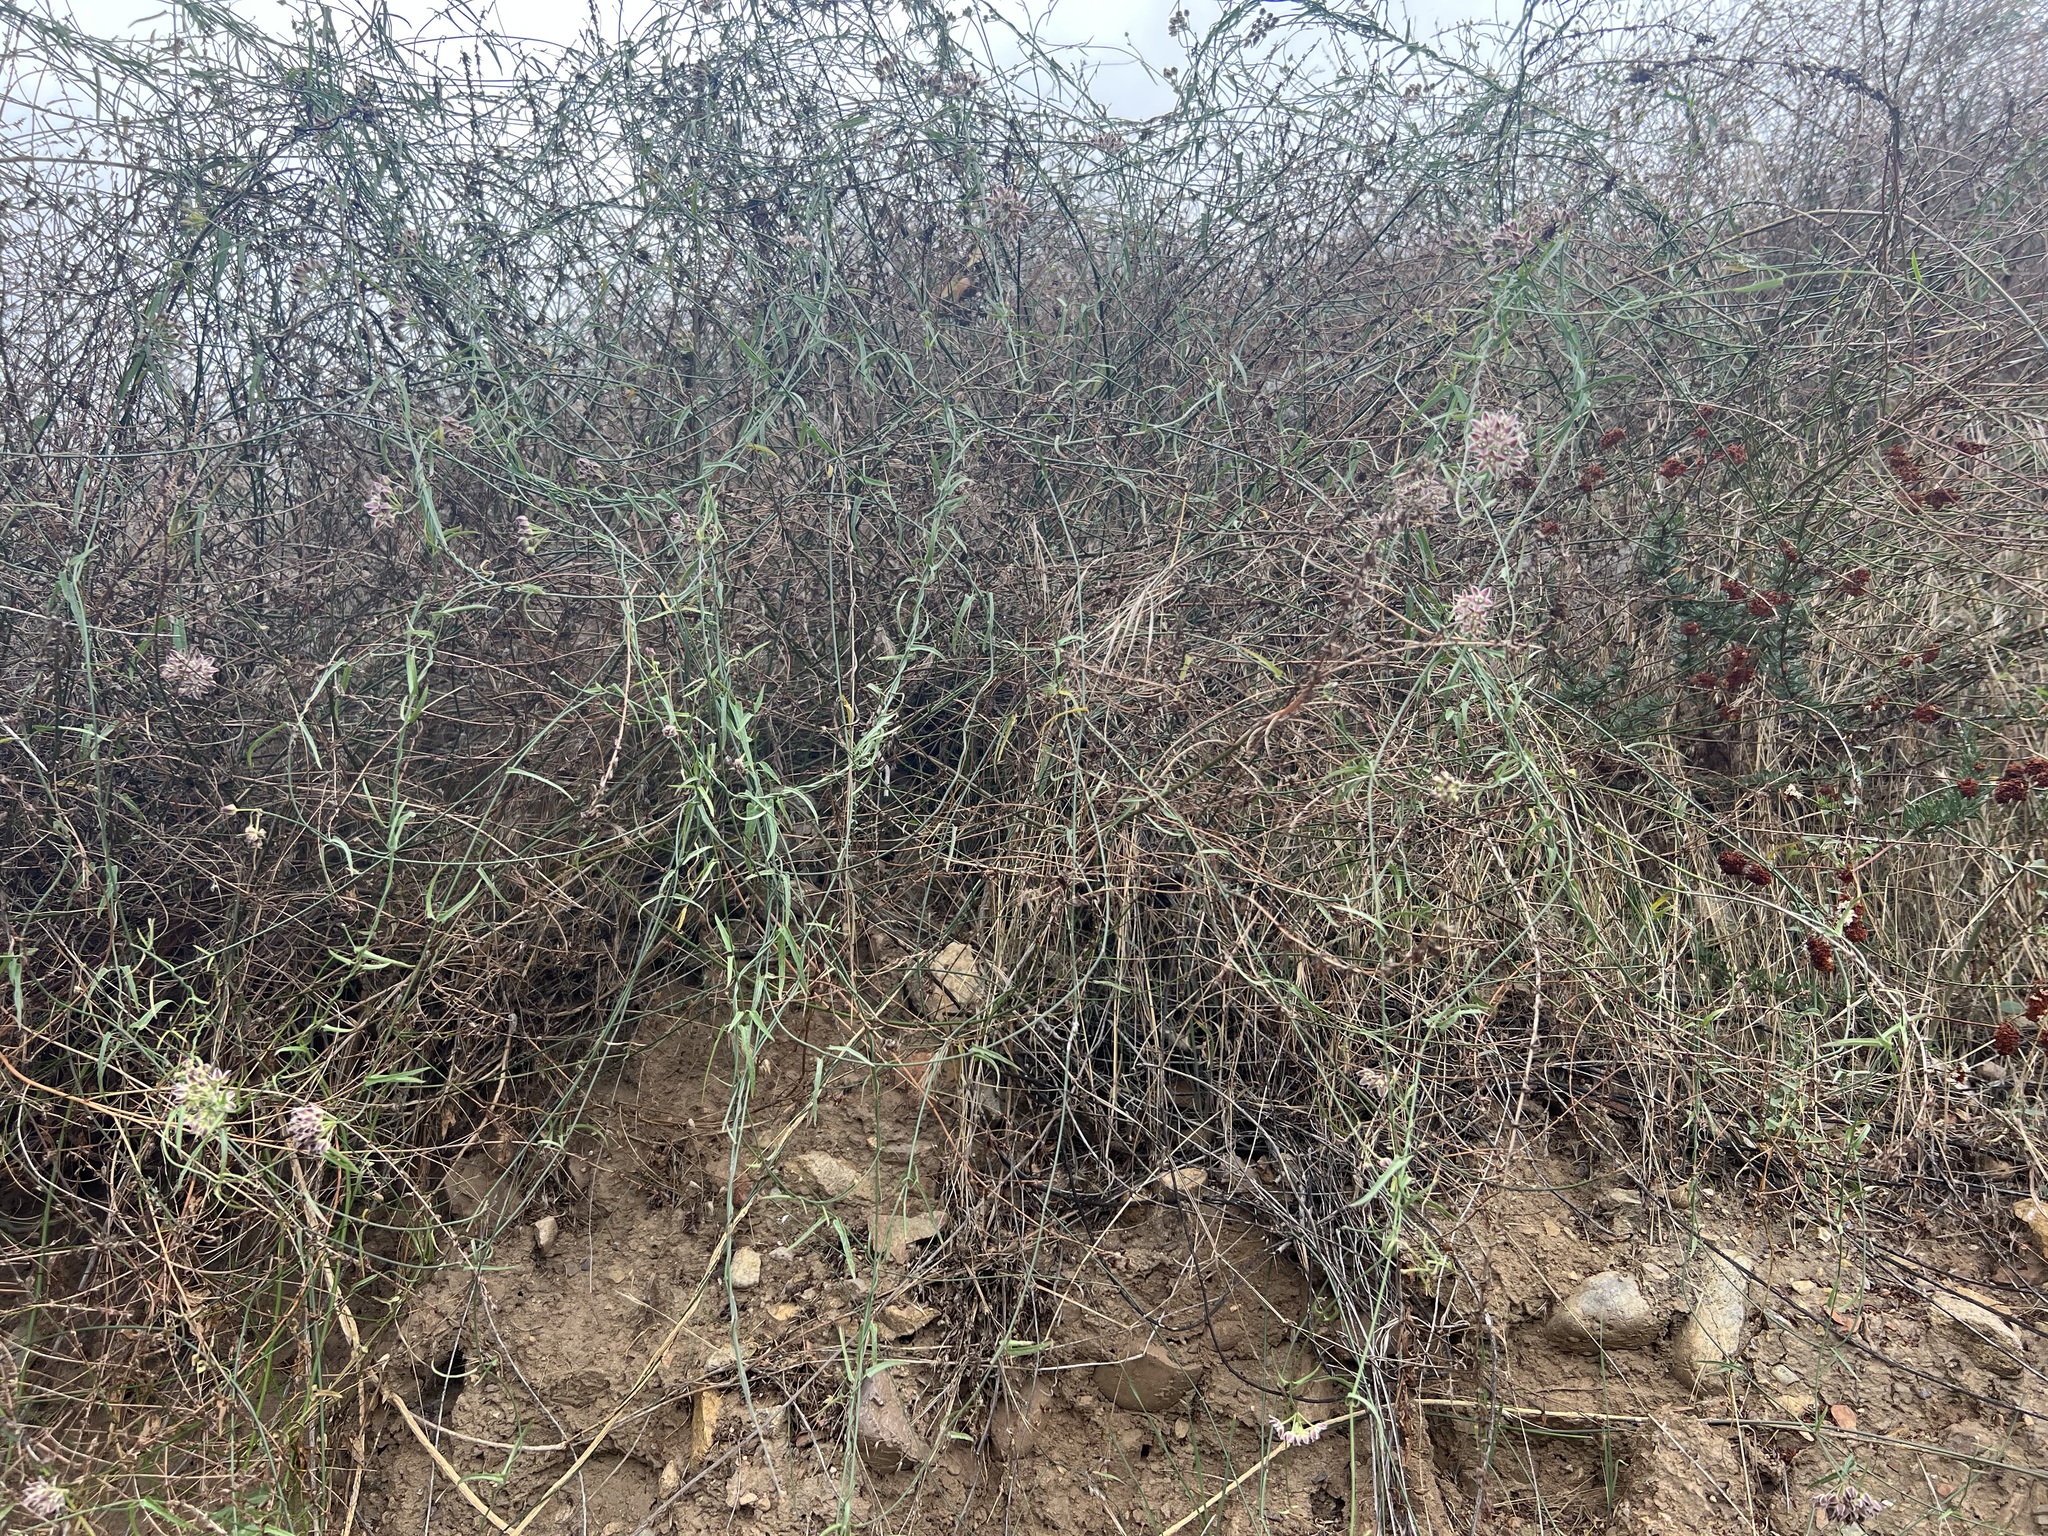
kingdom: Plantae
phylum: Tracheophyta
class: Magnoliopsida
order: Gentianales
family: Apocynaceae
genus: Funastrum
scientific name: Funastrum heterophyllum
